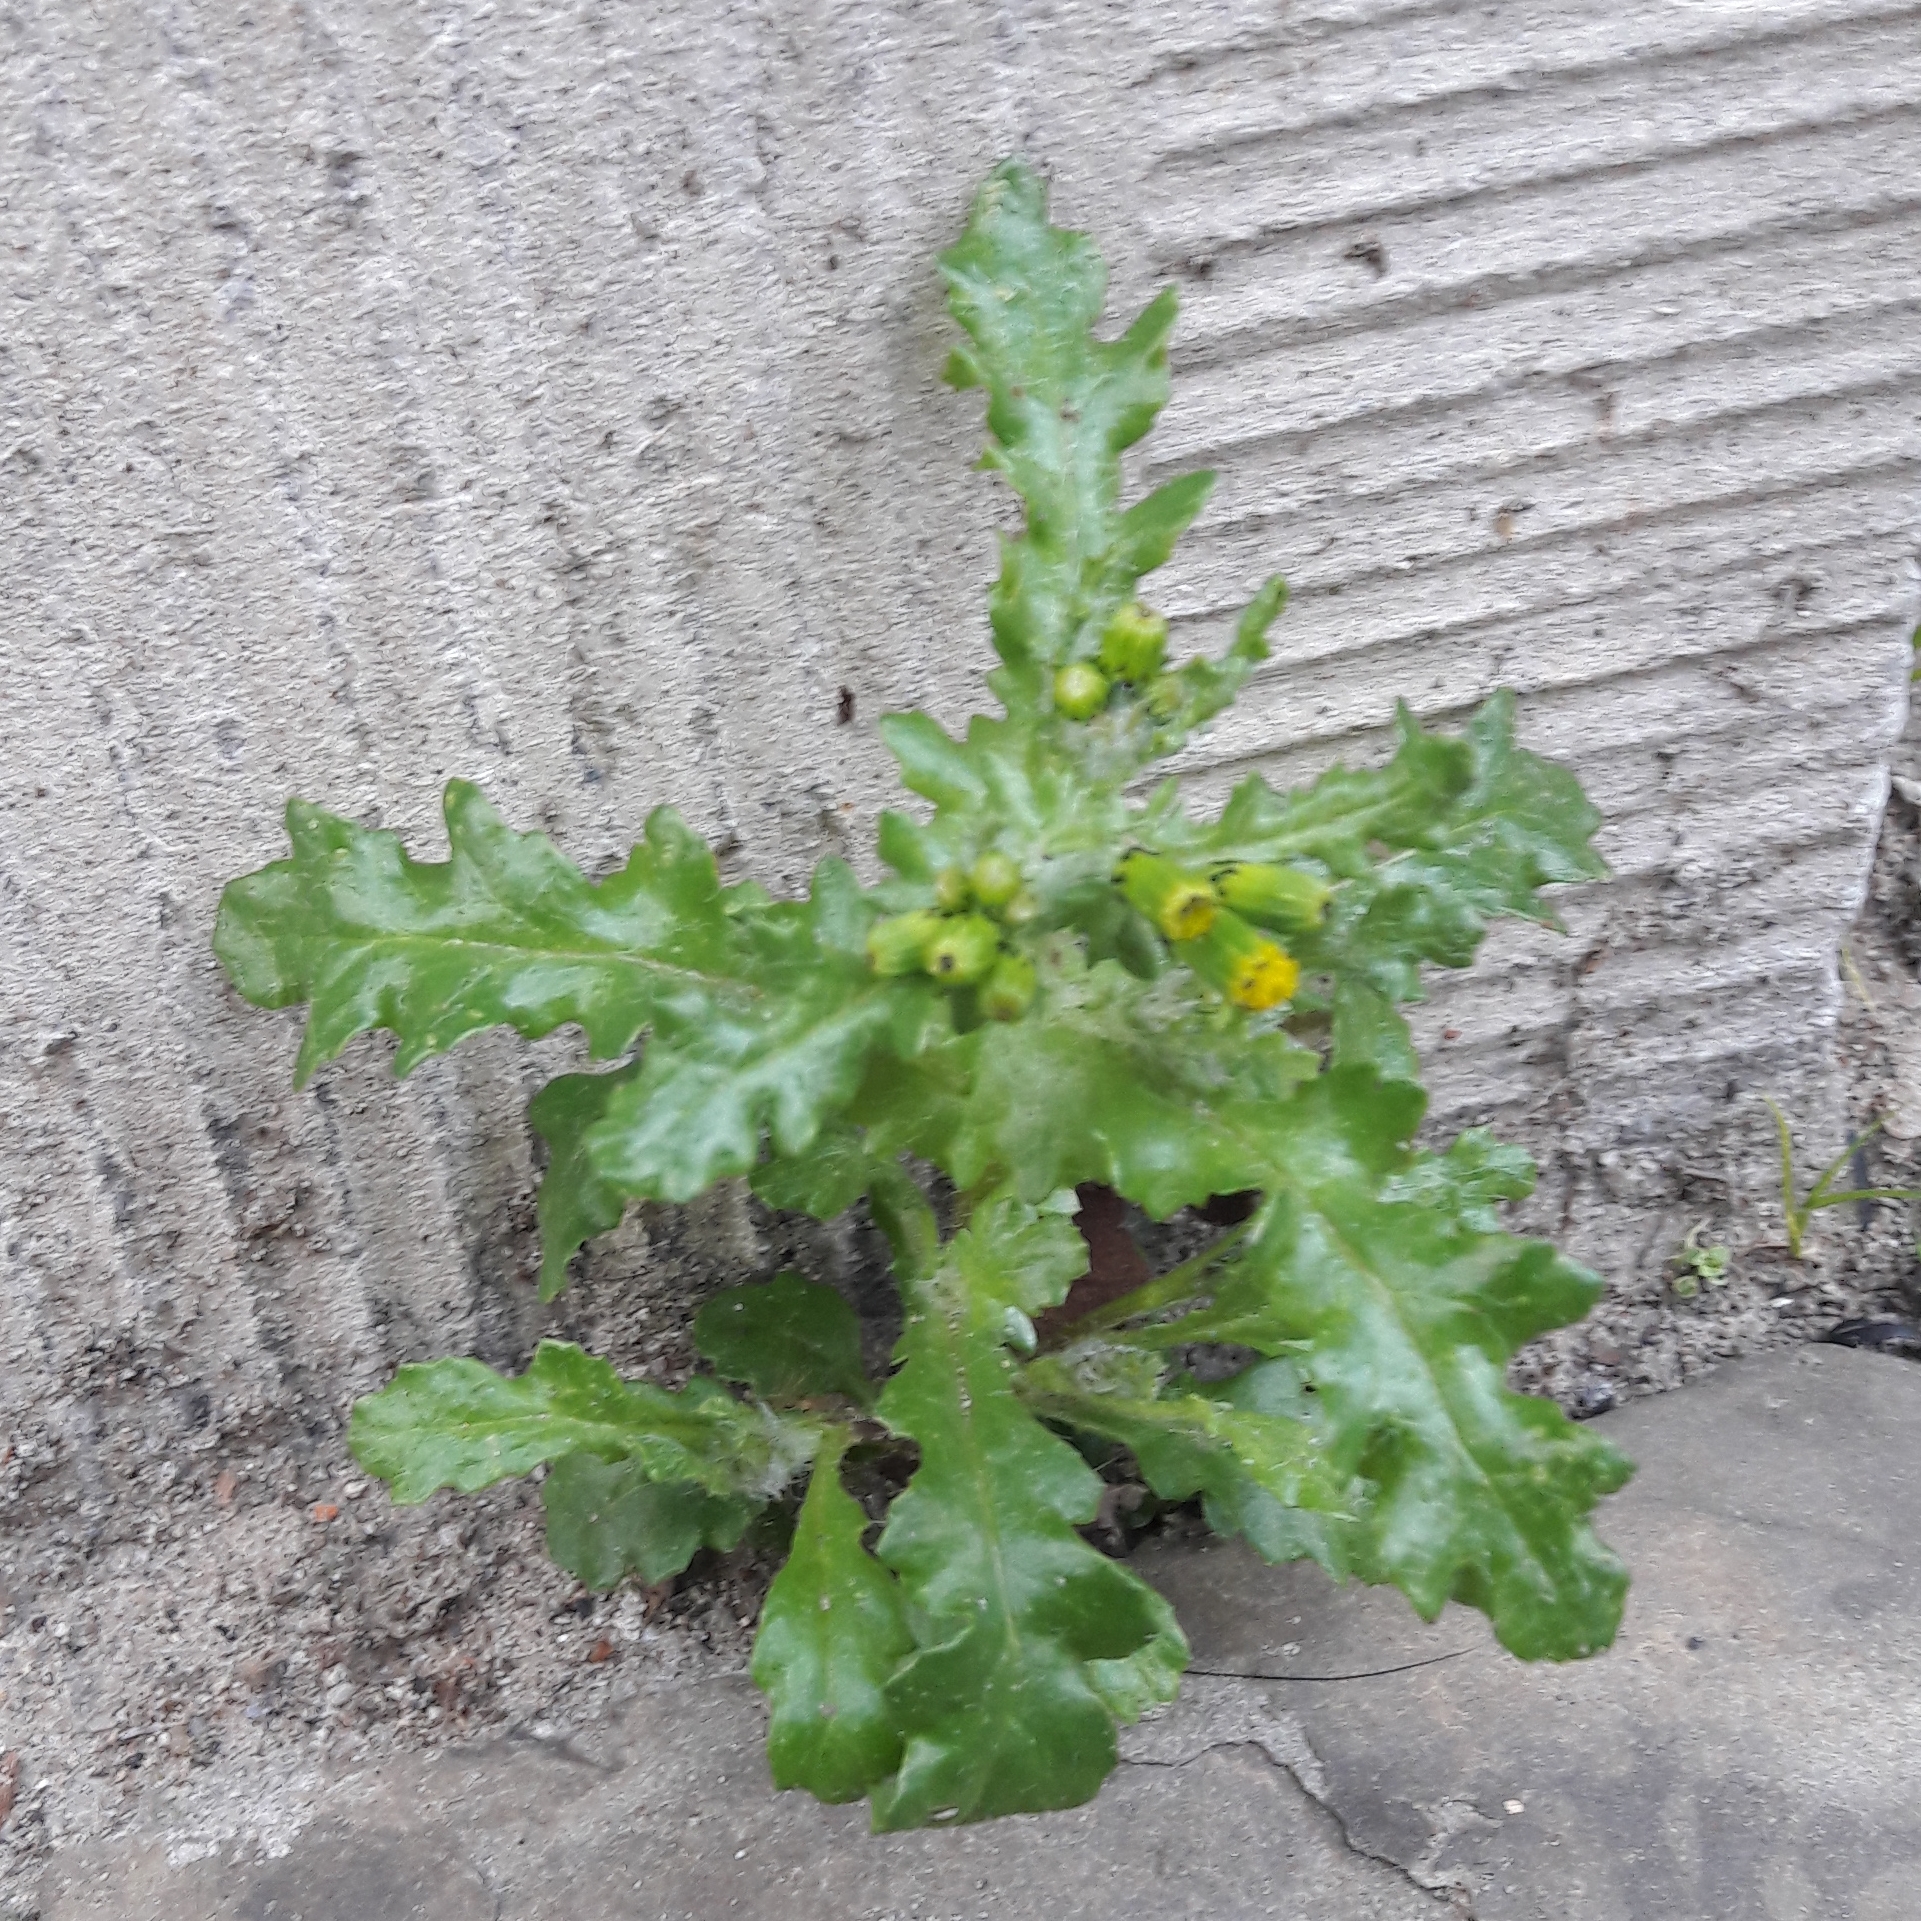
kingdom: Plantae
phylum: Tracheophyta
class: Magnoliopsida
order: Asterales
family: Asteraceae
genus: Senecio
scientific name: Senecio vulgaris
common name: Old-man-in-the-spring
